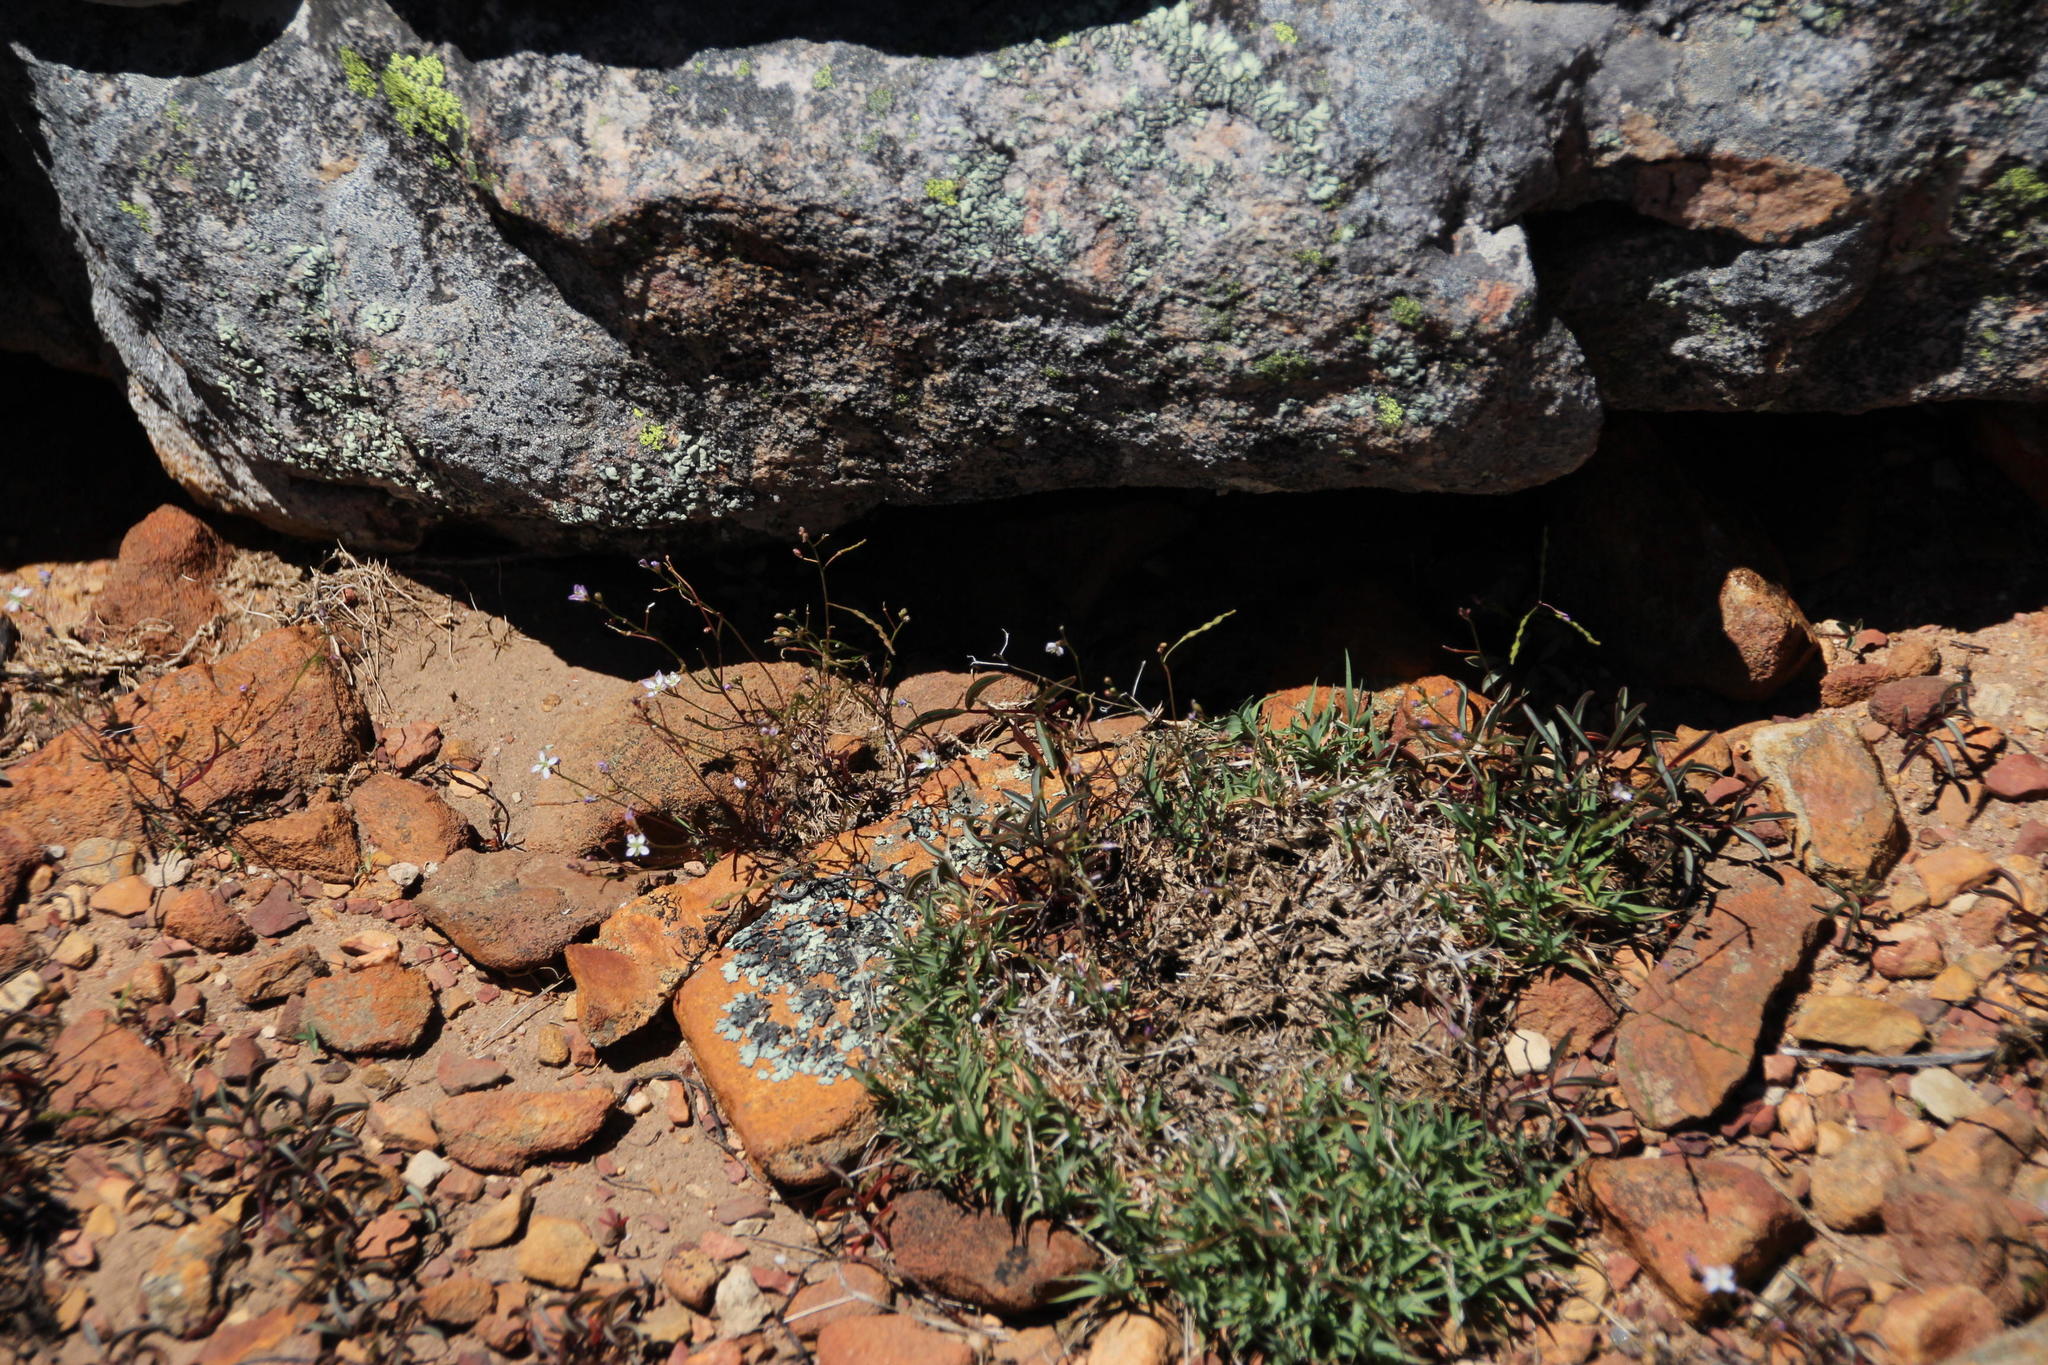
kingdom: Plantae
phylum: Tracheophyta
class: Magnoliopsida
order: Brassicales
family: Brassicaceae
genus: Heliophila
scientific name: Heliophila pinnata
